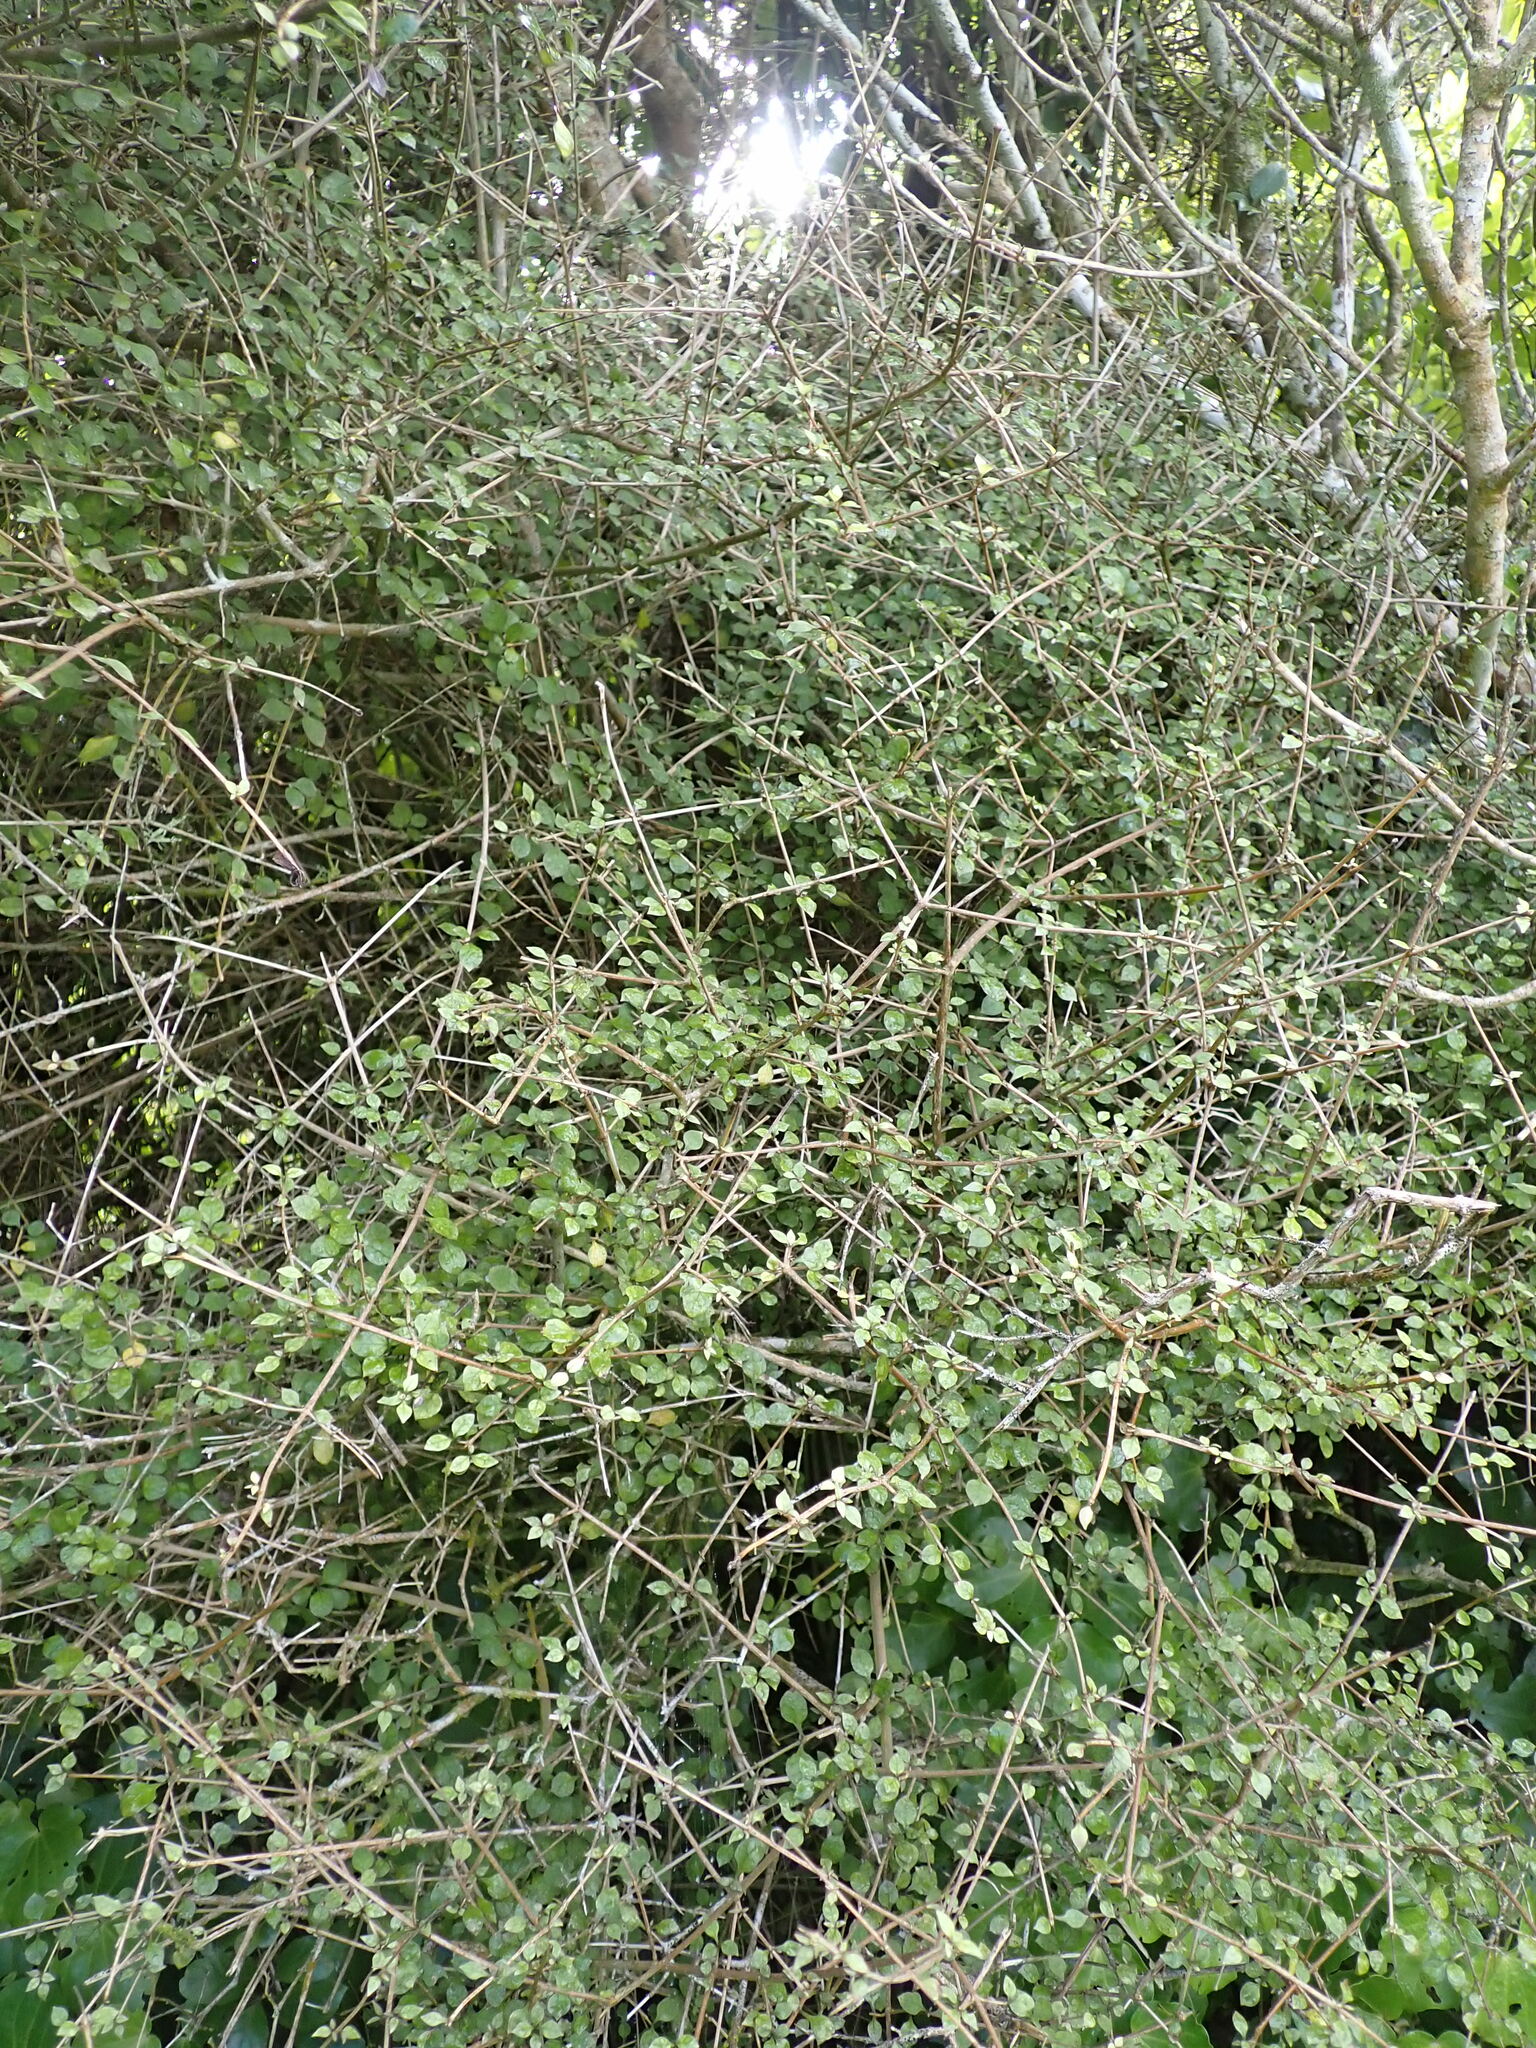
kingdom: Plantae
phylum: Tracheophyta
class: Magnoliopsida
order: Gentianales
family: Rubiaceae
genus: Coprosma
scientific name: Coprosma areolata
